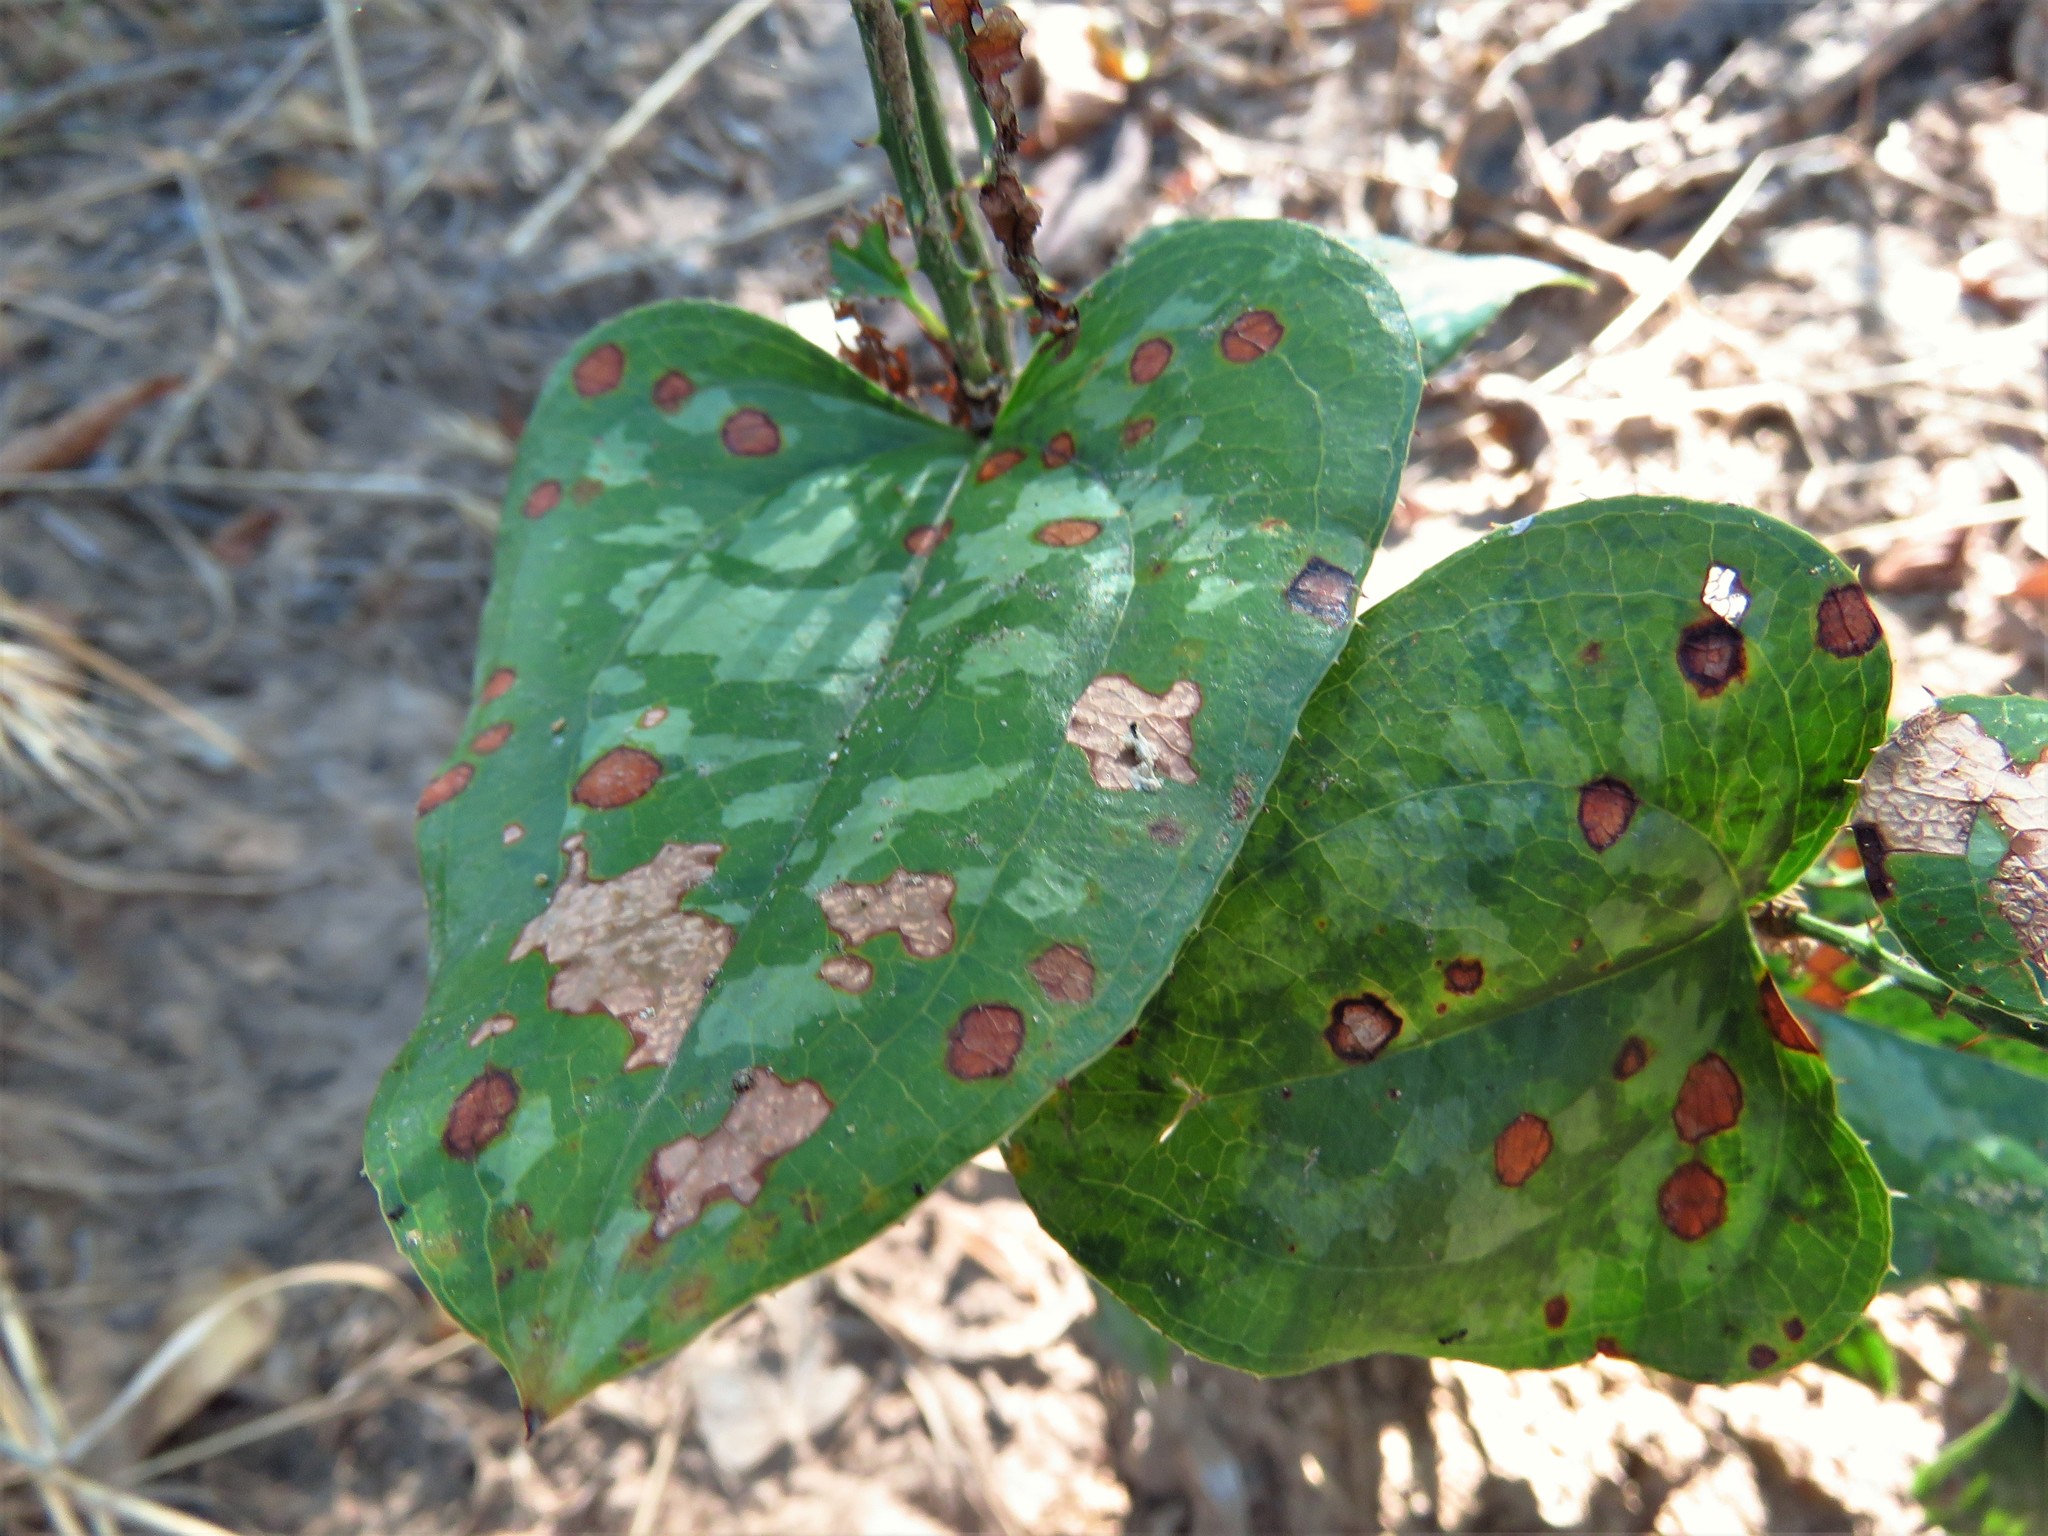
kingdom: Plantae
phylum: Tracheophyta
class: Liliopsida
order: Liliales
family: Smilacaceae
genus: Smilax
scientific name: Smilax bona-nox
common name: Catbrier
